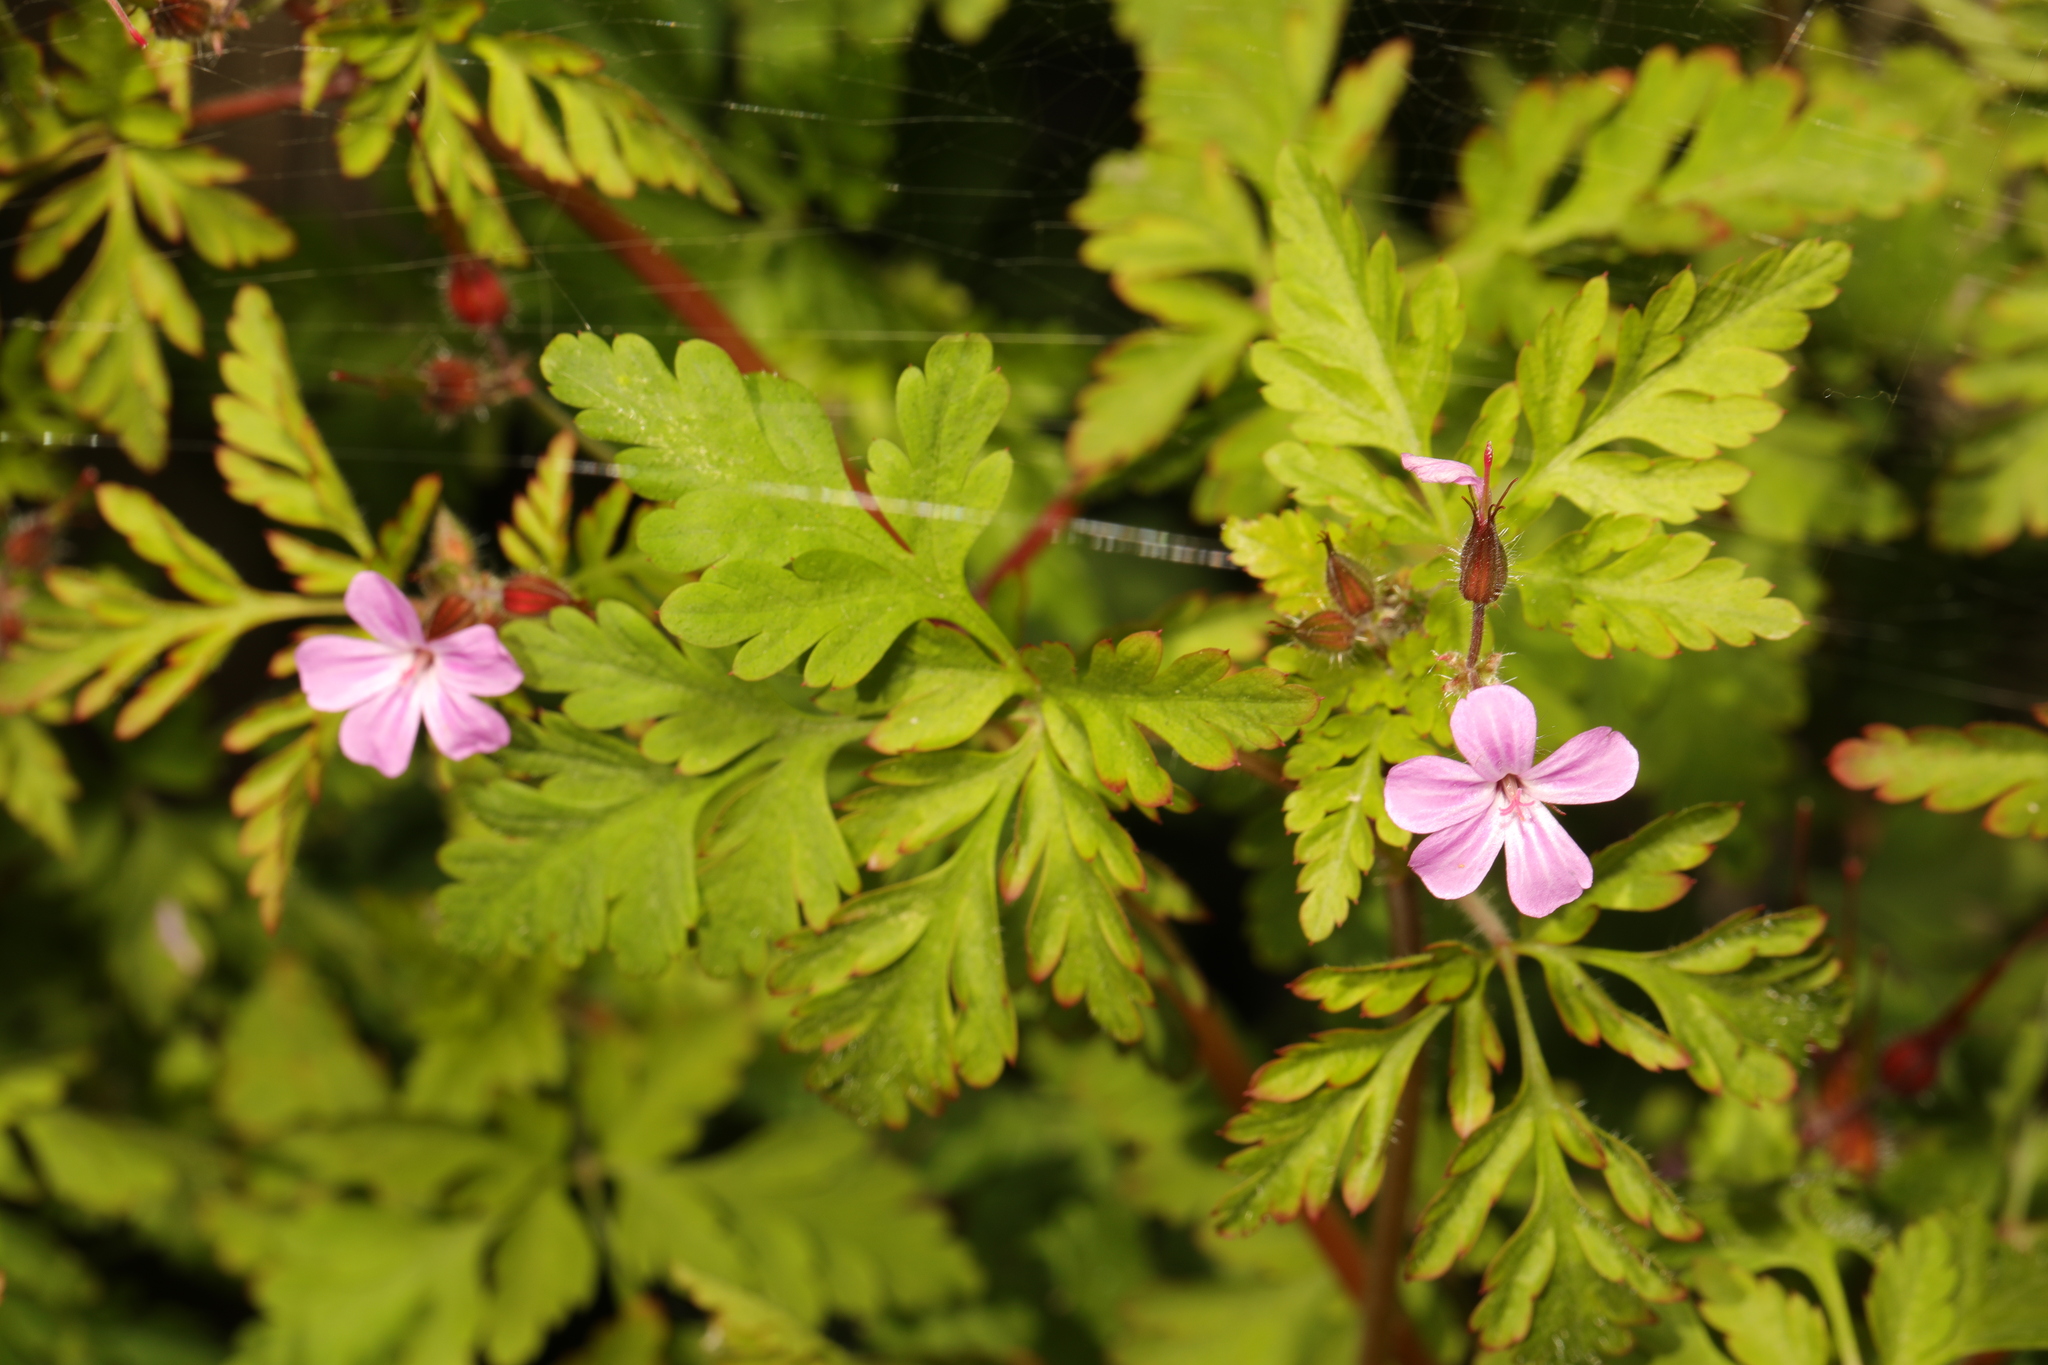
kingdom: Plantae
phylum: Tracheophyta
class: Magnoliopsida
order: Geraniales
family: Geraniaceae
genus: Geranium
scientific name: Geranium robertianum
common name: Herb-robert
